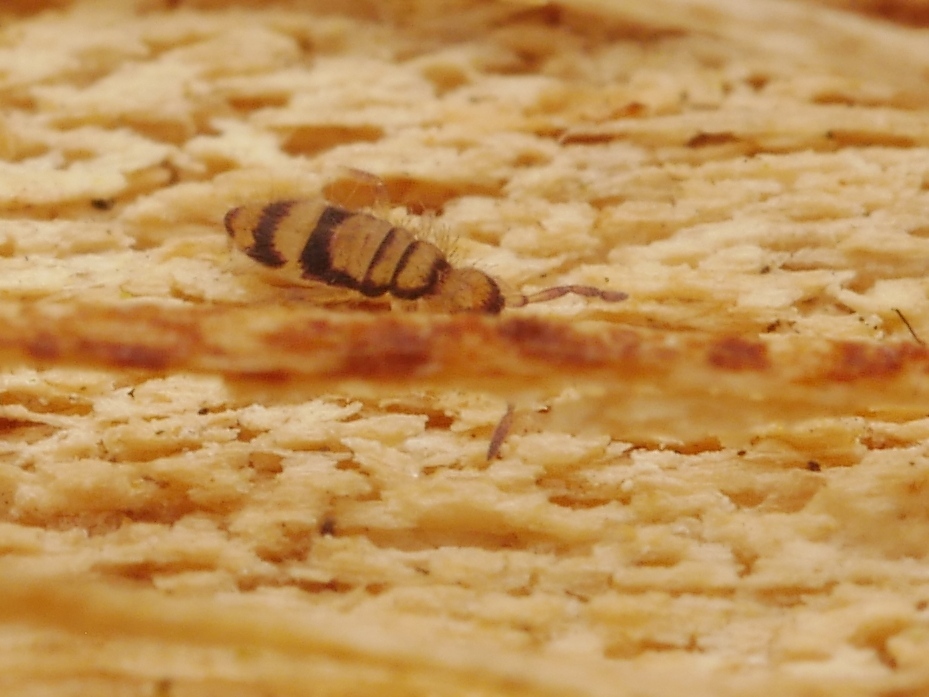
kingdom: Animalia
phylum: Arthropoda
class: Collembola
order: Entomobryomorpha
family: Entomobryidae
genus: Entomobrya
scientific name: Entomobrya corticalis
